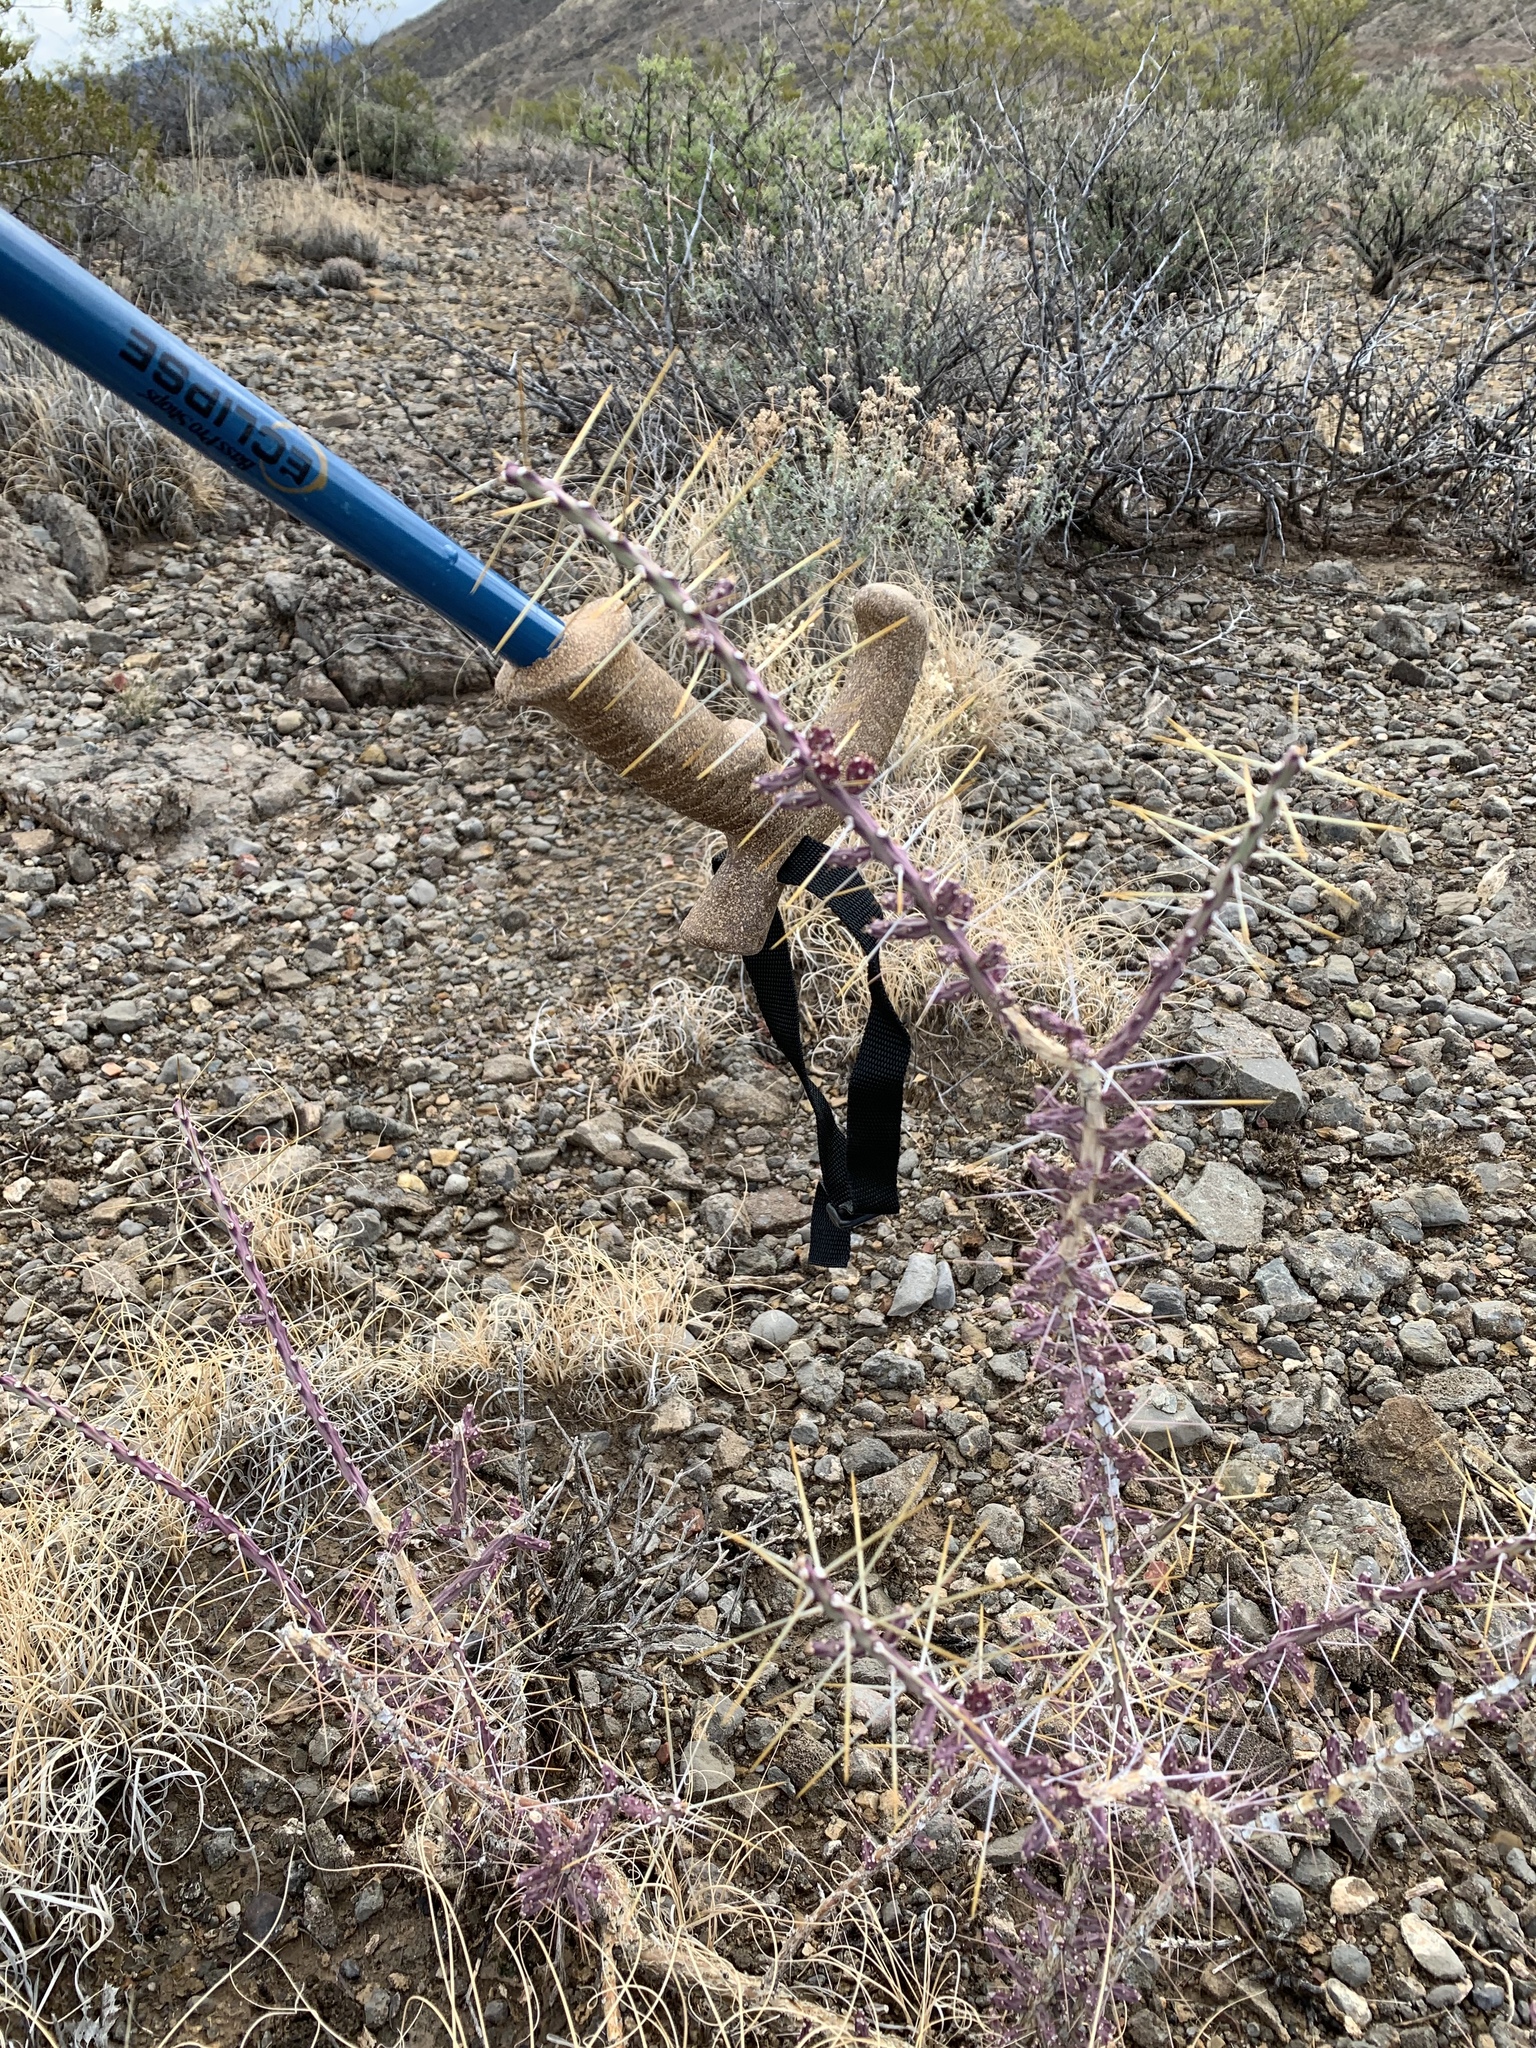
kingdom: Plantae
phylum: Tracheophyta
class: Magnoliopsida
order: Caryophyllales
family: Cactaceae
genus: Cylindropuntia
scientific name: Cylindropuntia leptocaulis
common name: Christmas cactus
